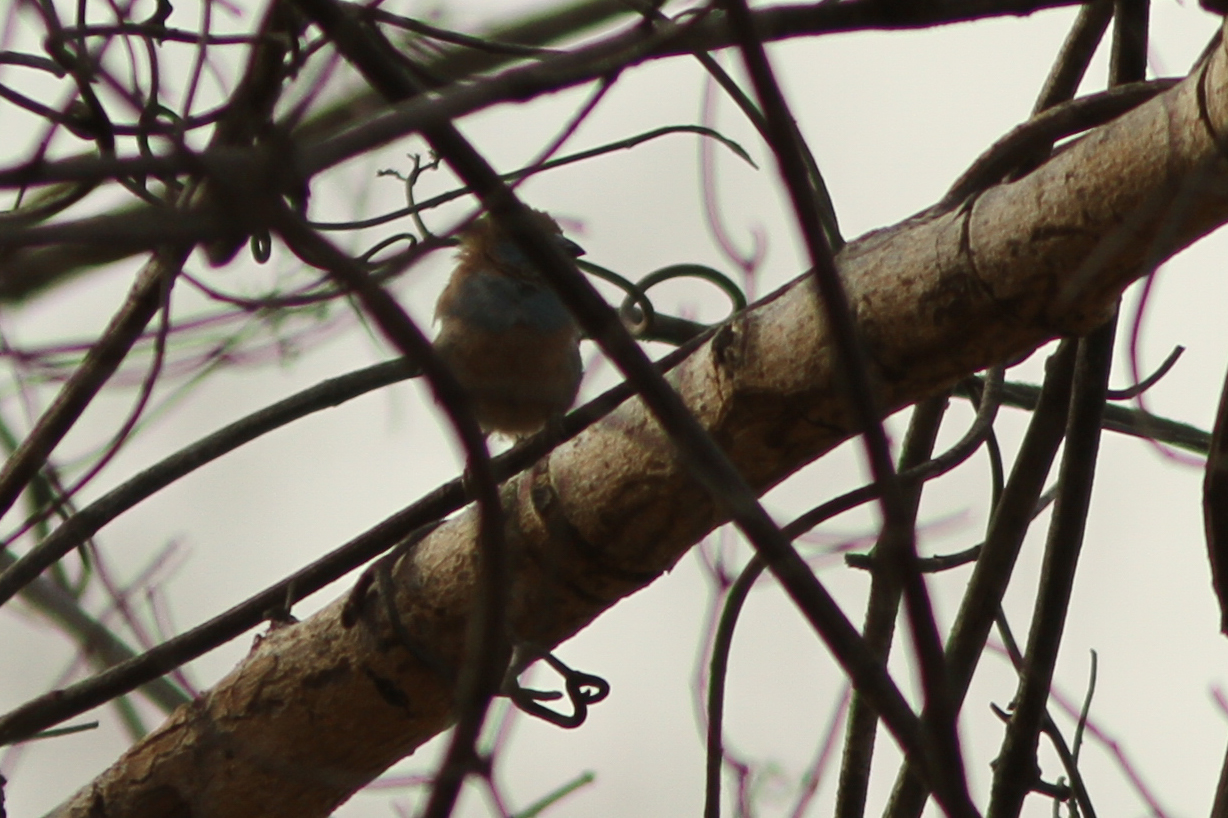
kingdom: Animalia
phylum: Chordata
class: Aves
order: Passeriformes
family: Estrildidae
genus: Uraeginthus
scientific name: Uraeginthus bengalus
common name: Red-cheeked cordon-bleu
